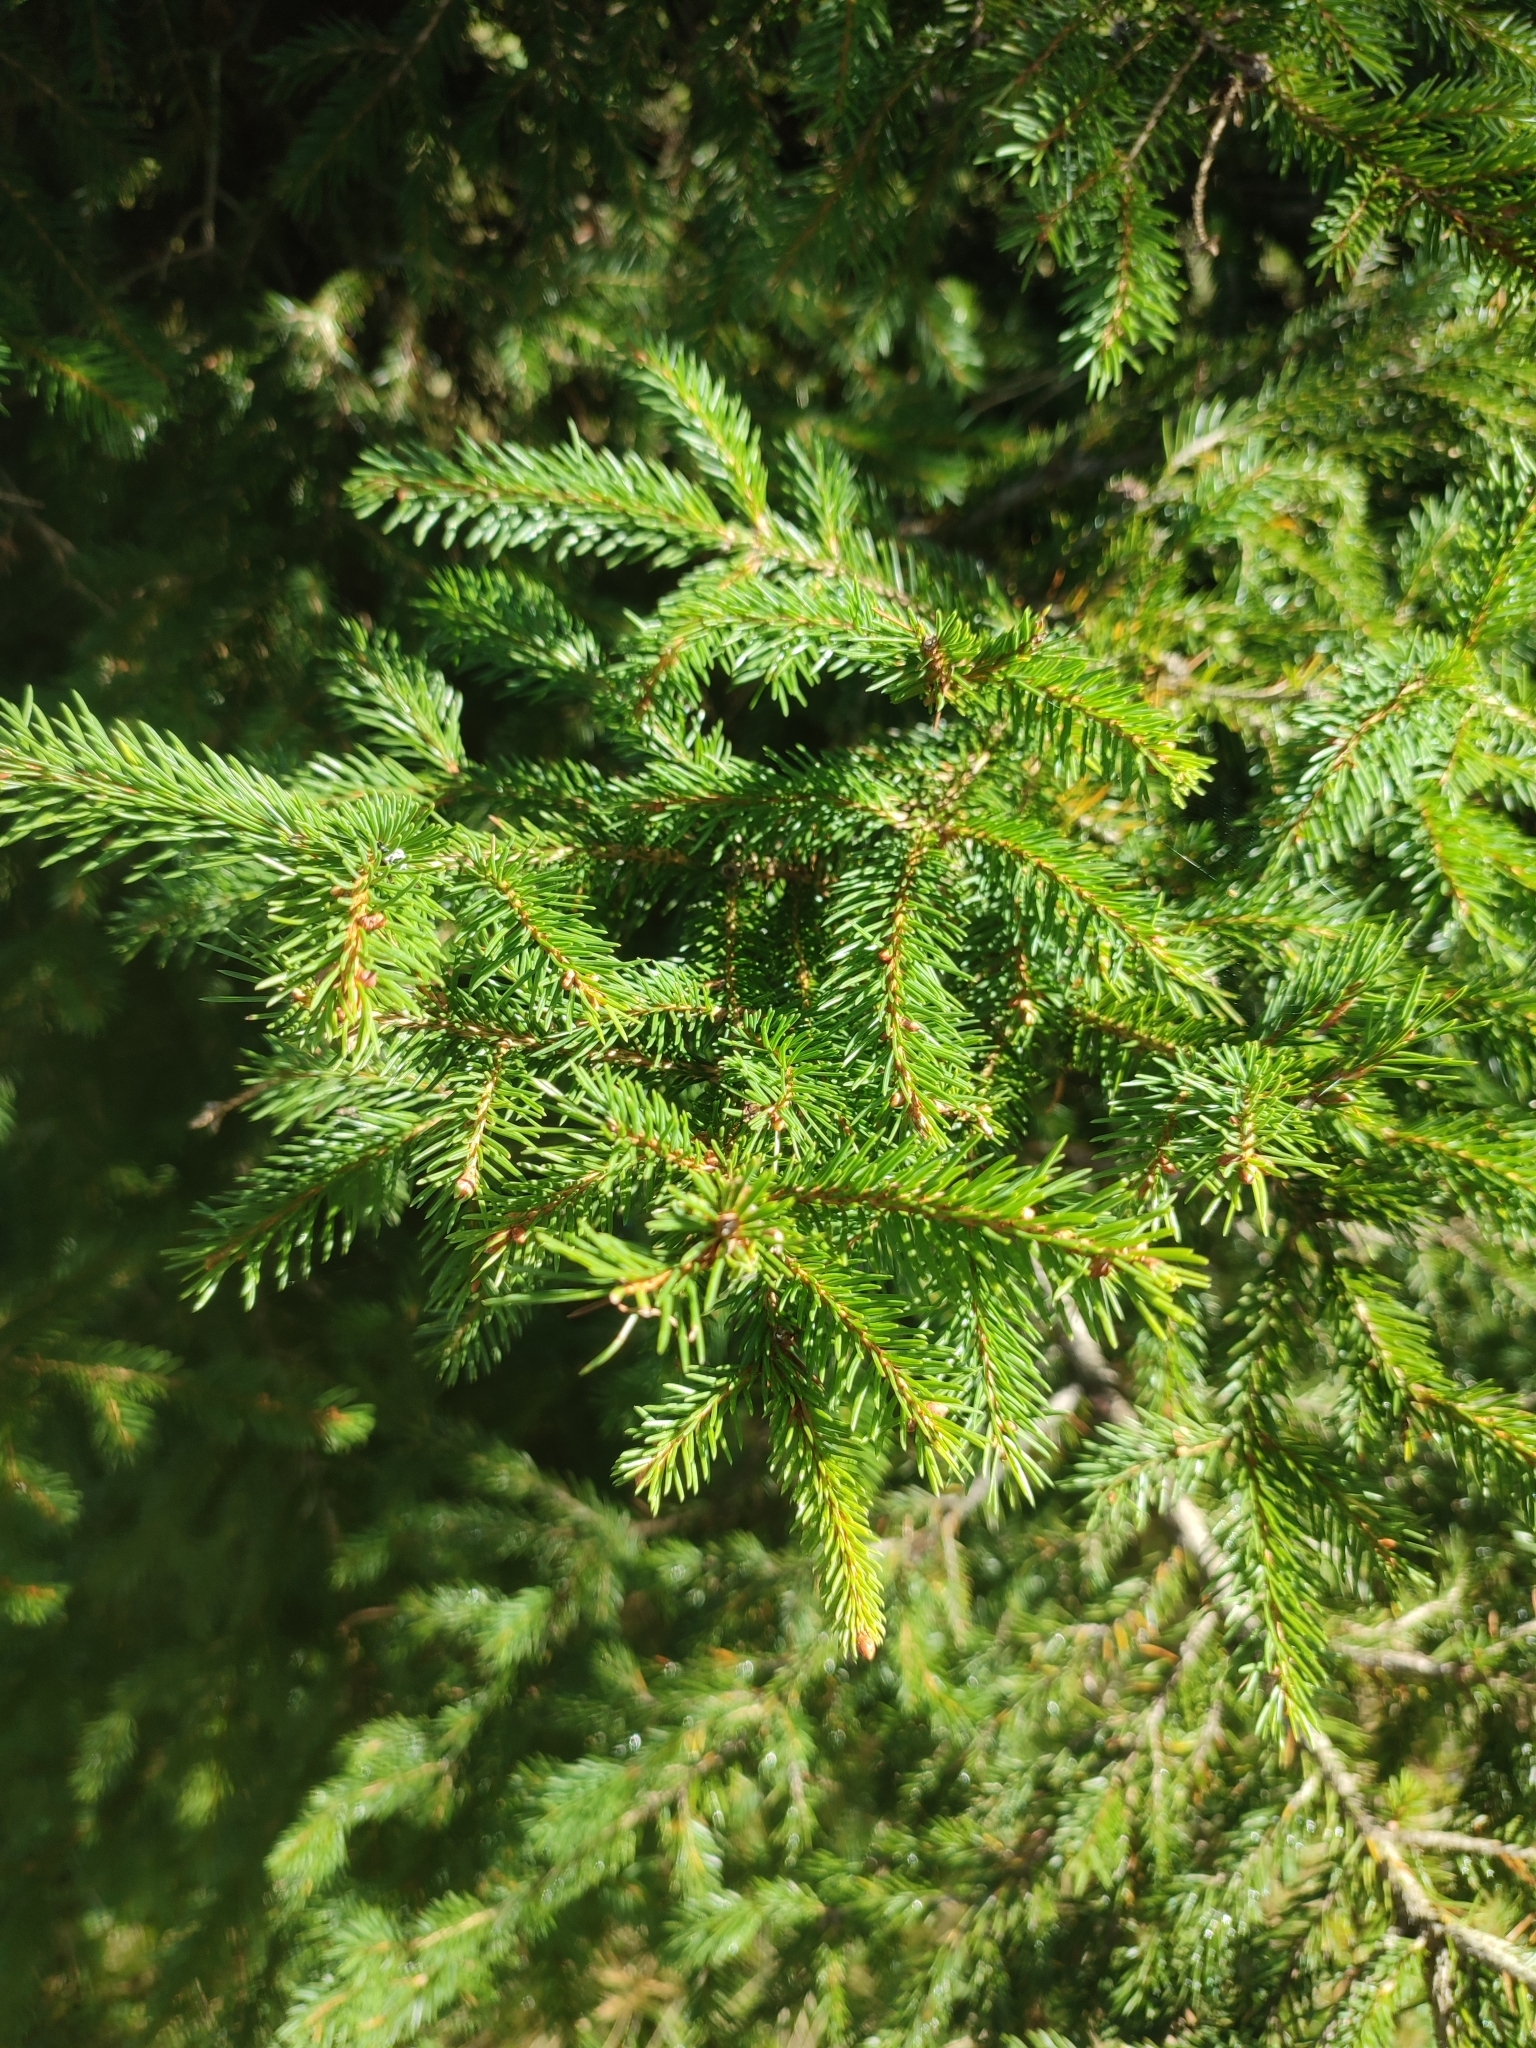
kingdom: Plantae
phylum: Tracheophyta
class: Pinopsida
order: Pinales
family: Pinaceae
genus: Picea
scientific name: Picea abies
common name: Norway spruce
